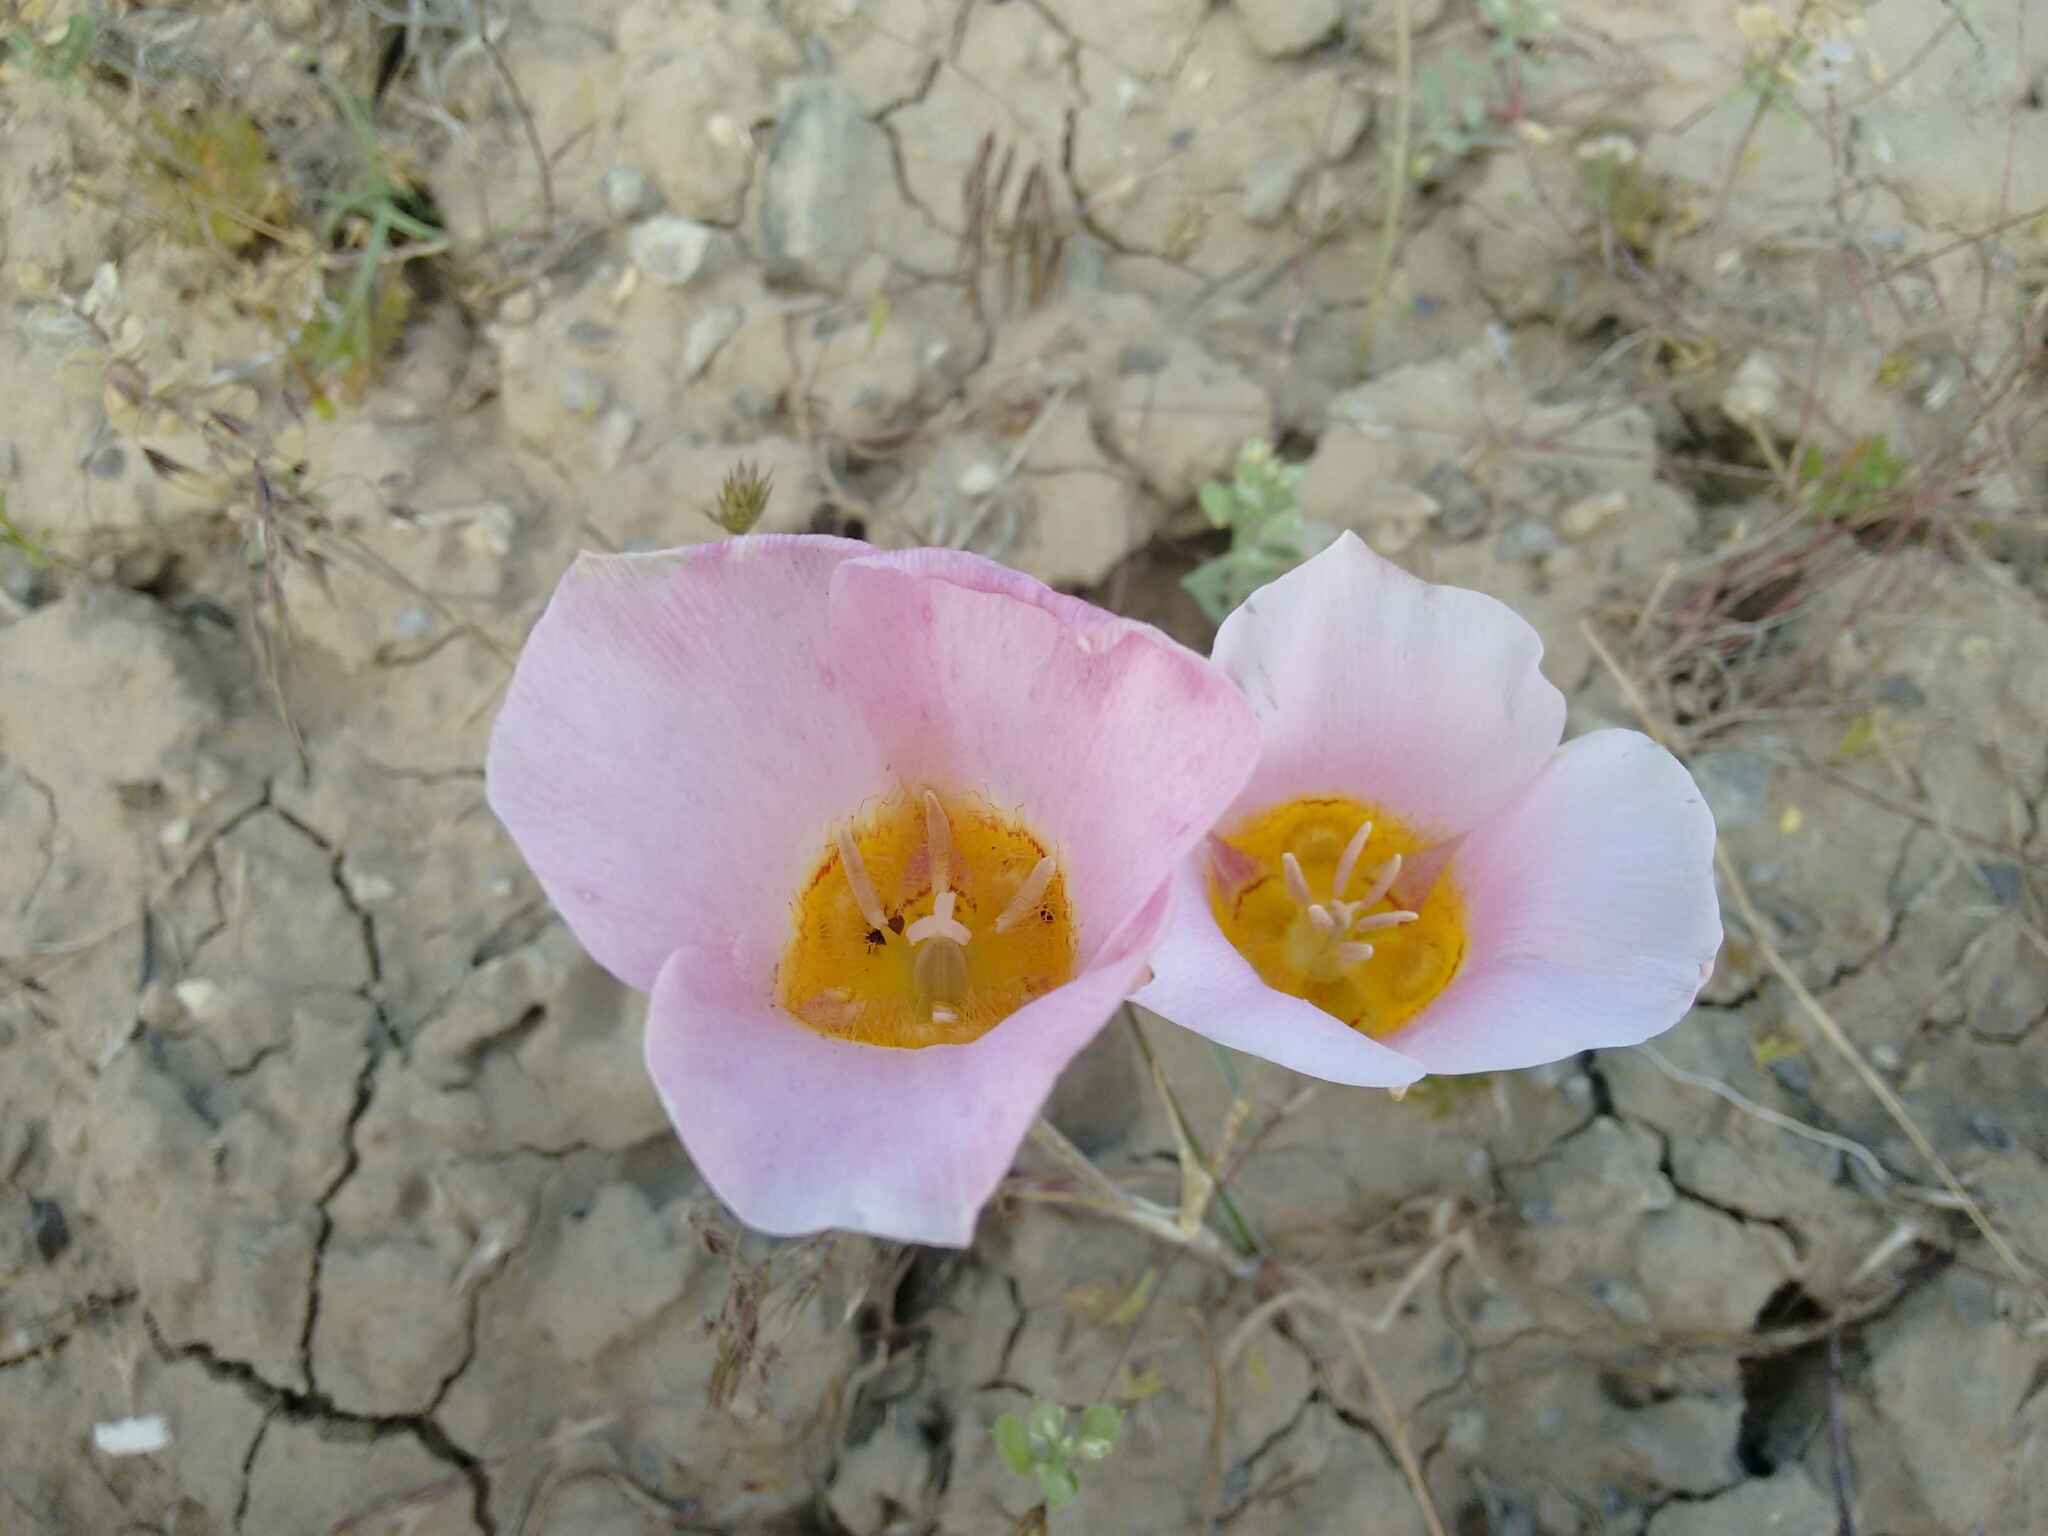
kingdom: Plantae
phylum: Tracheophyta
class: Liliopsida
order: Liliales
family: Liliaceae
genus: Calochortus
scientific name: Calochortus ciscoensis
